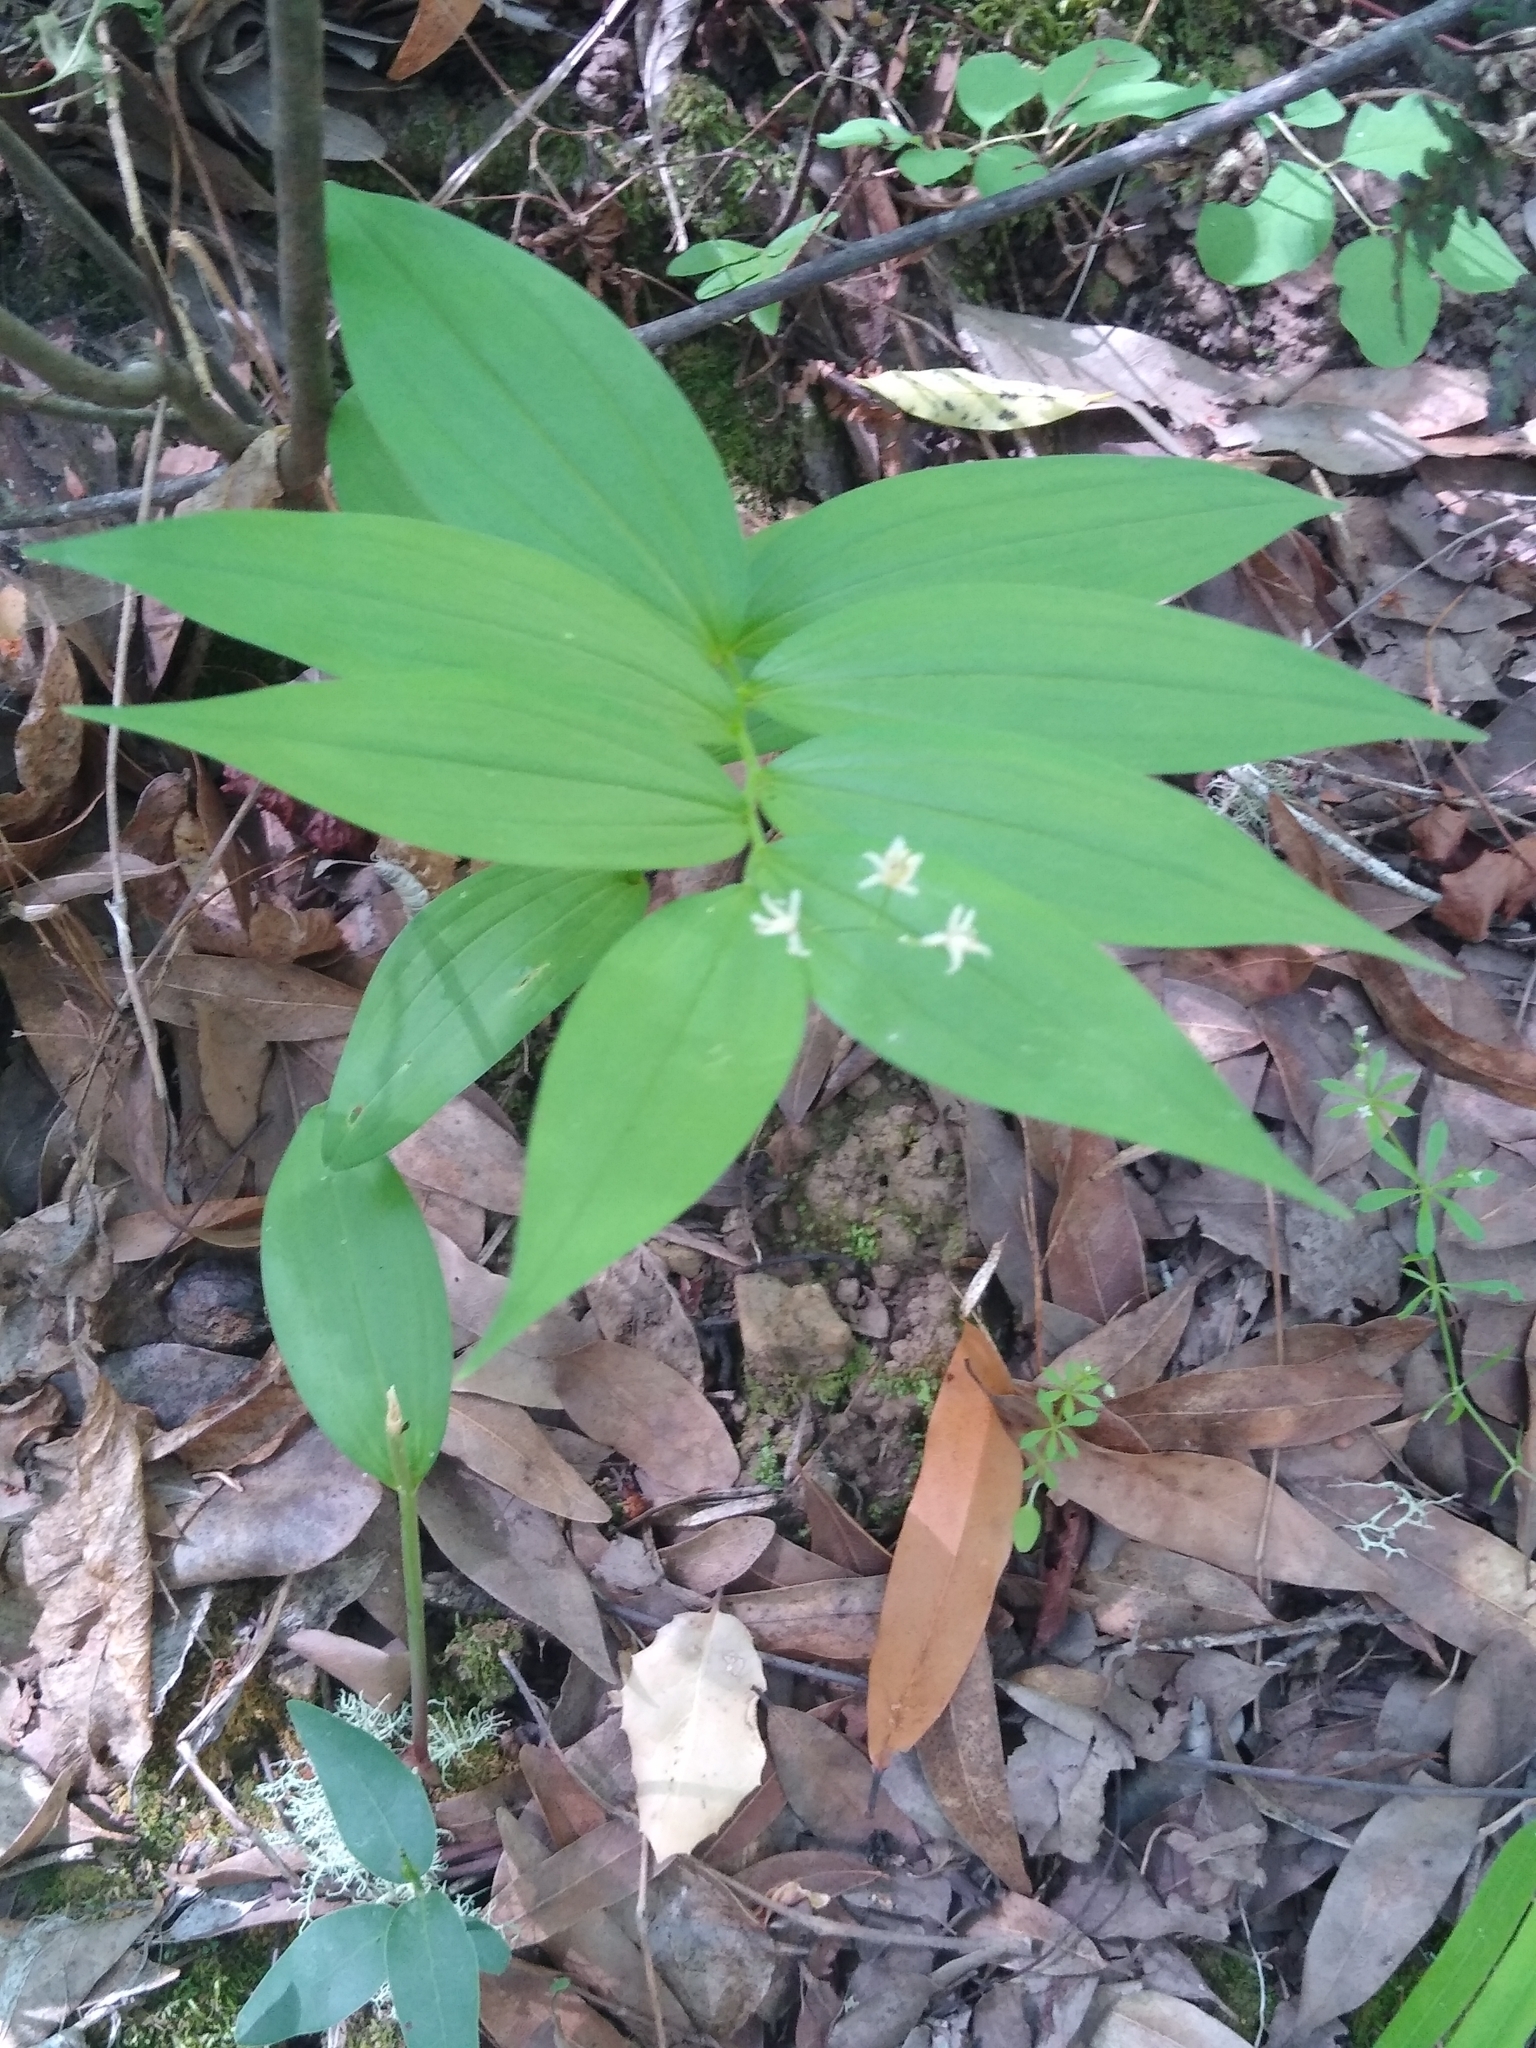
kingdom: Plantae
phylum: Tracheophyta
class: Liliopsida
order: Asparagales
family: Asparagaceae
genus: Maianthemum
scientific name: Maianthemum stellatum
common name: Little false solomon's seal
